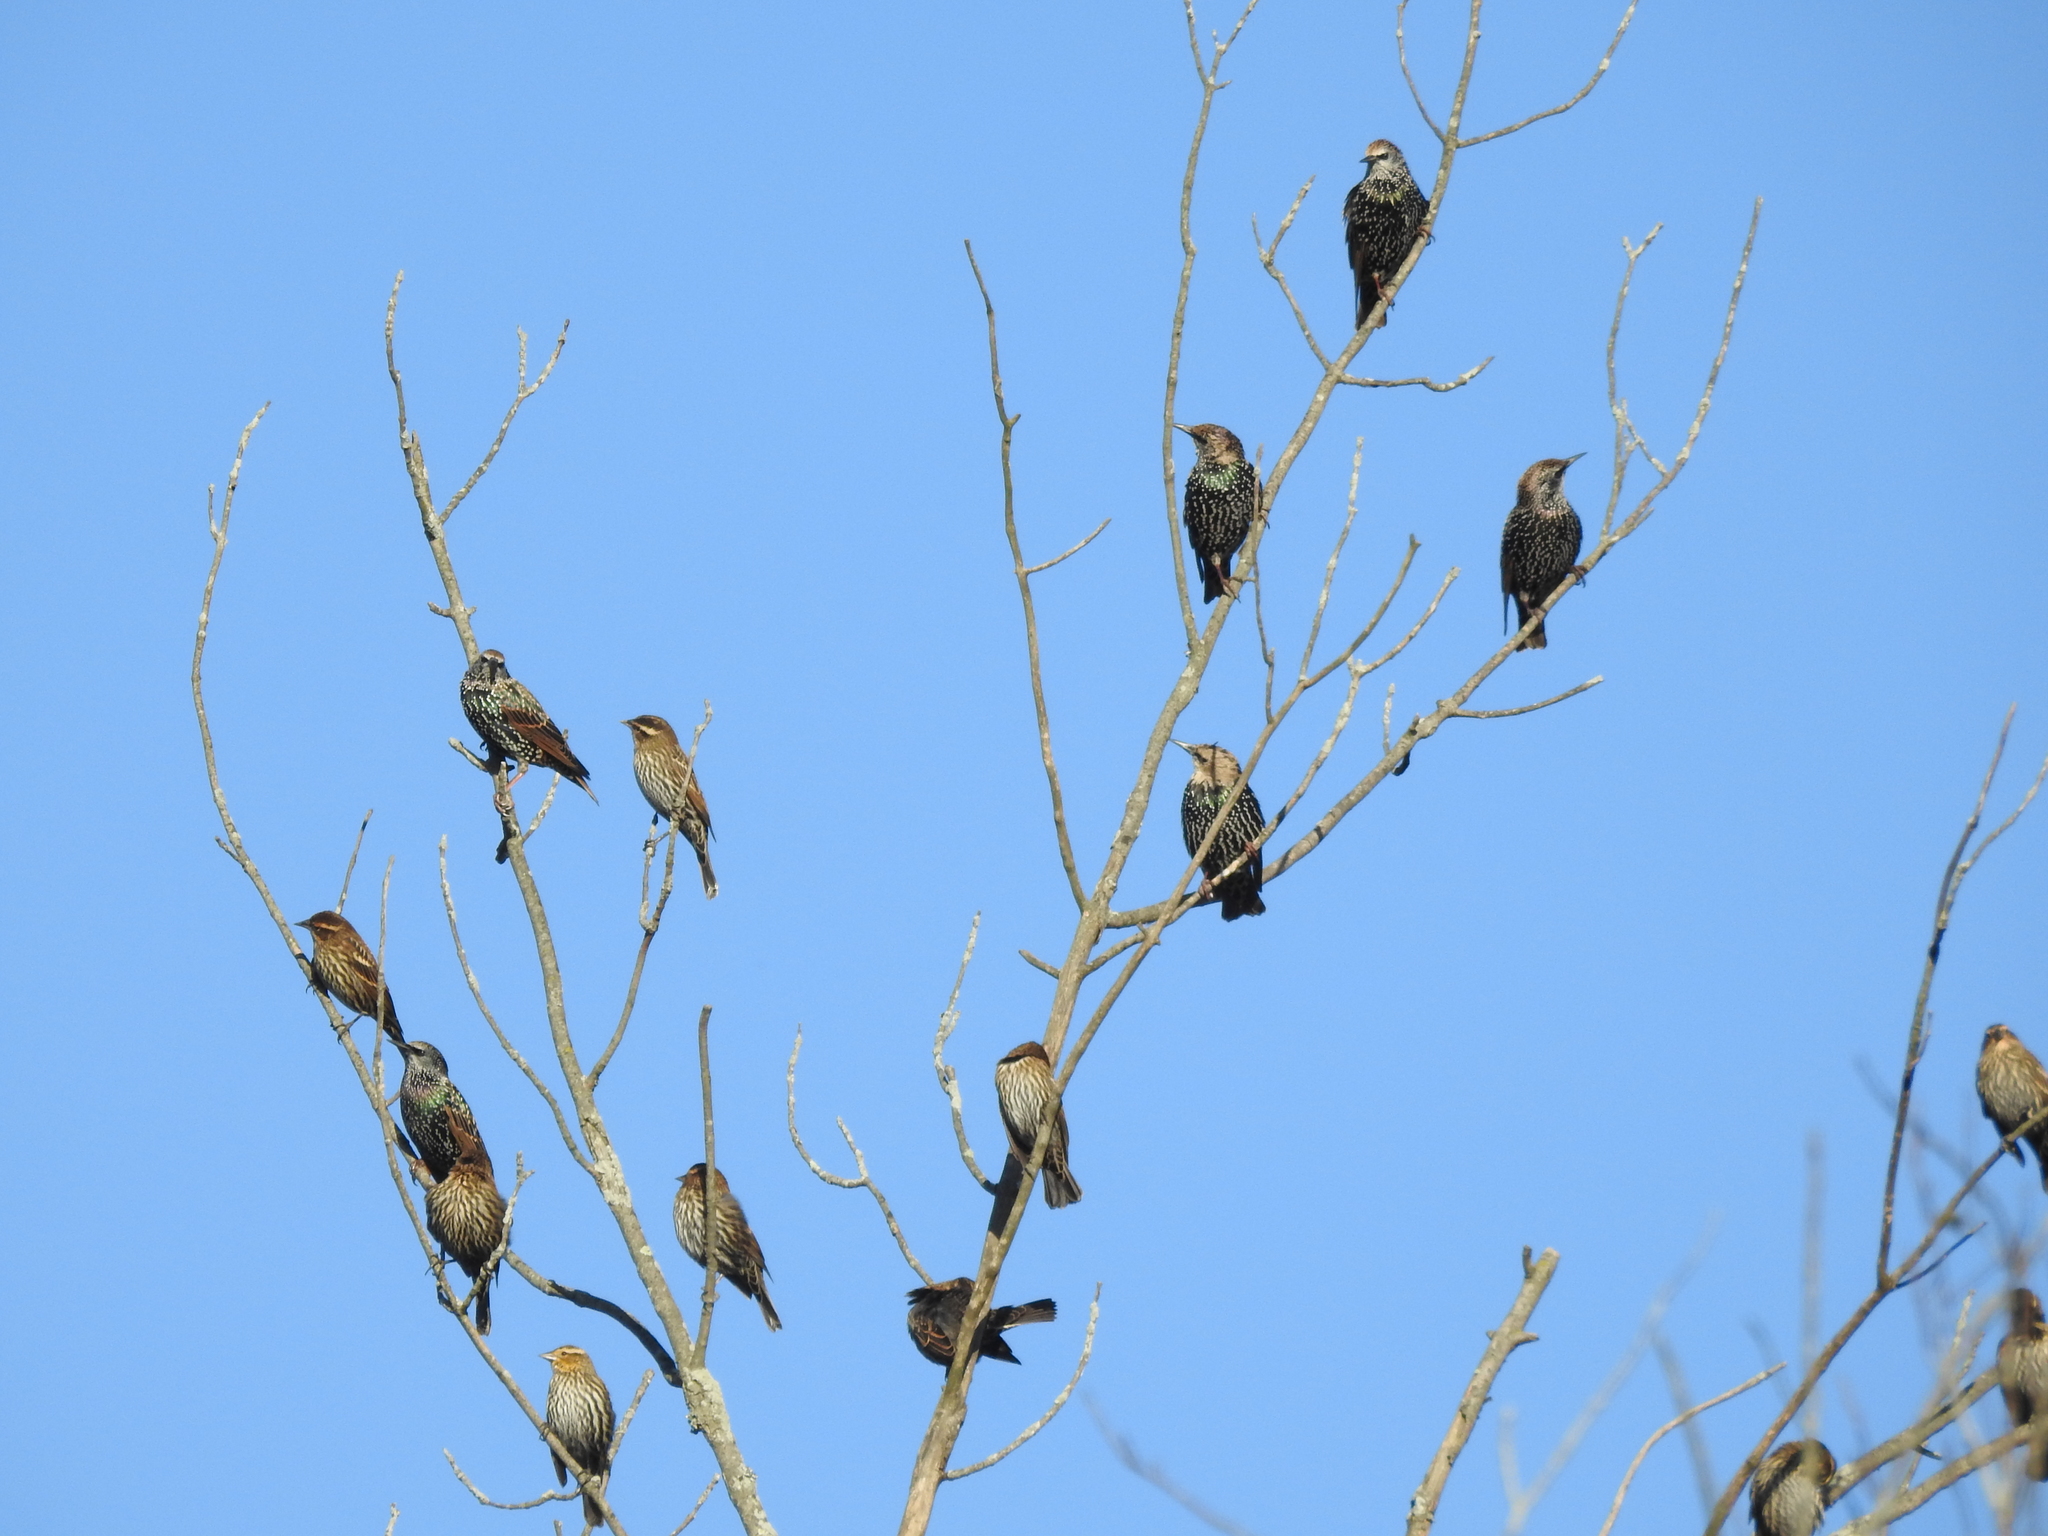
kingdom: Animalia
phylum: Chordata
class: Aves
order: Passeriformes
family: Sturnidae
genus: Sturnus
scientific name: Sturnus vulgaris
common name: Common starling
